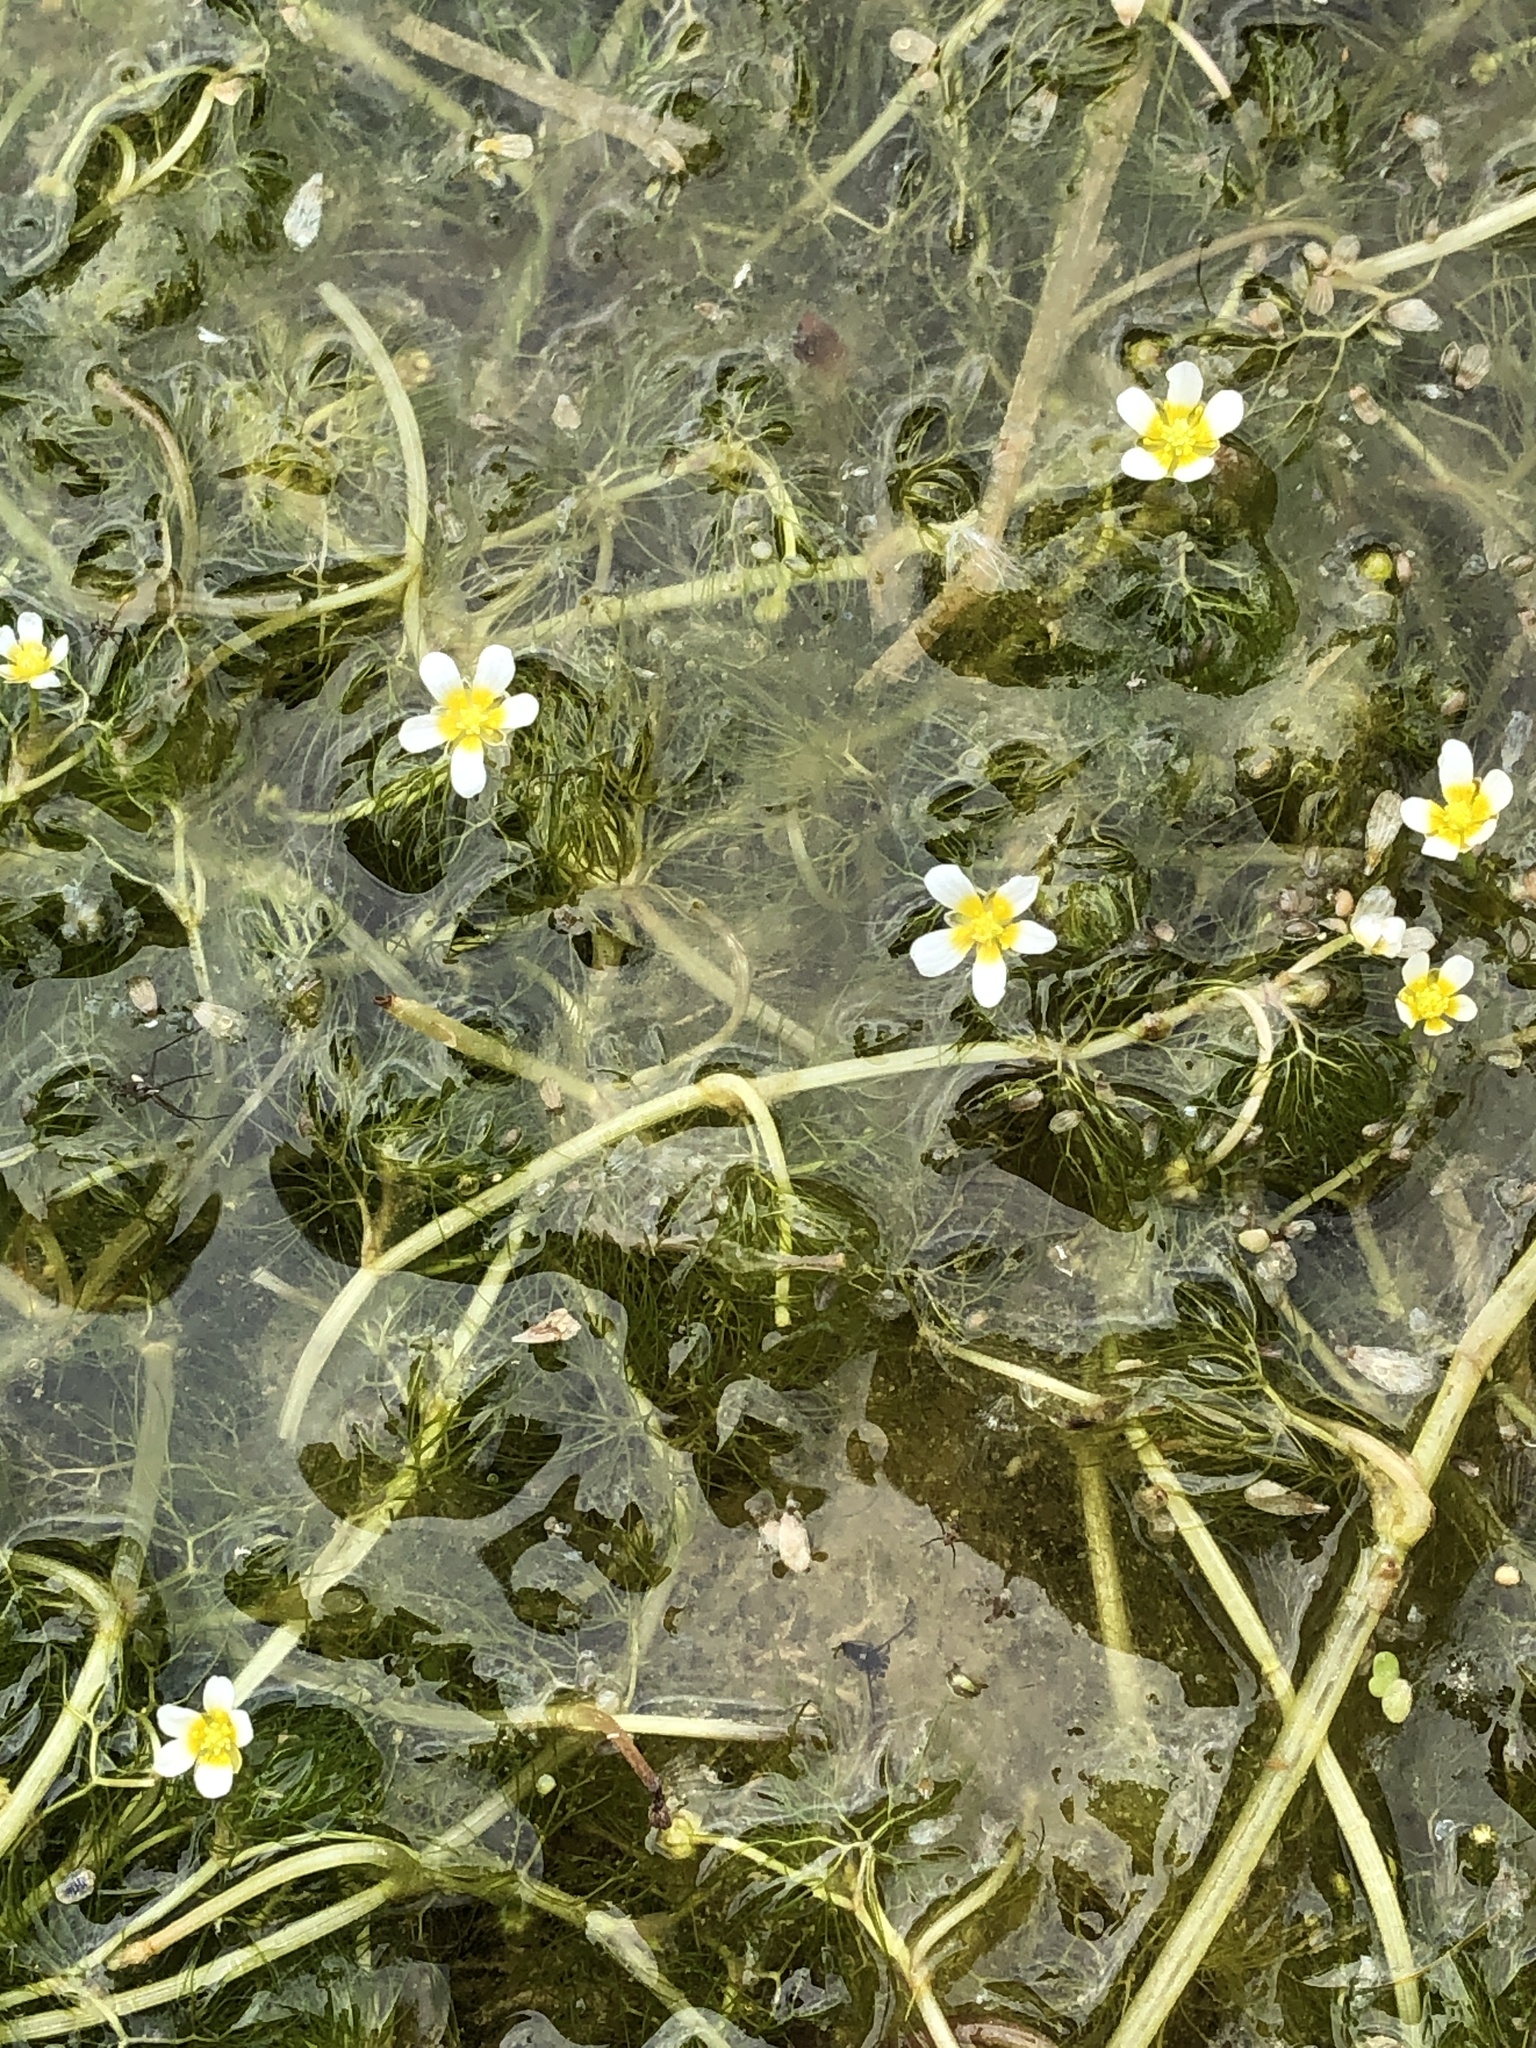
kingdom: Plantae
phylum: Tracheophyta
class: Magnoliopsida
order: Ranunculales
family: Ranunculaceae
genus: Ranunculus
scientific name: Ranunculus trichophyllus
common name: Thread-leaved water-crowfoot
